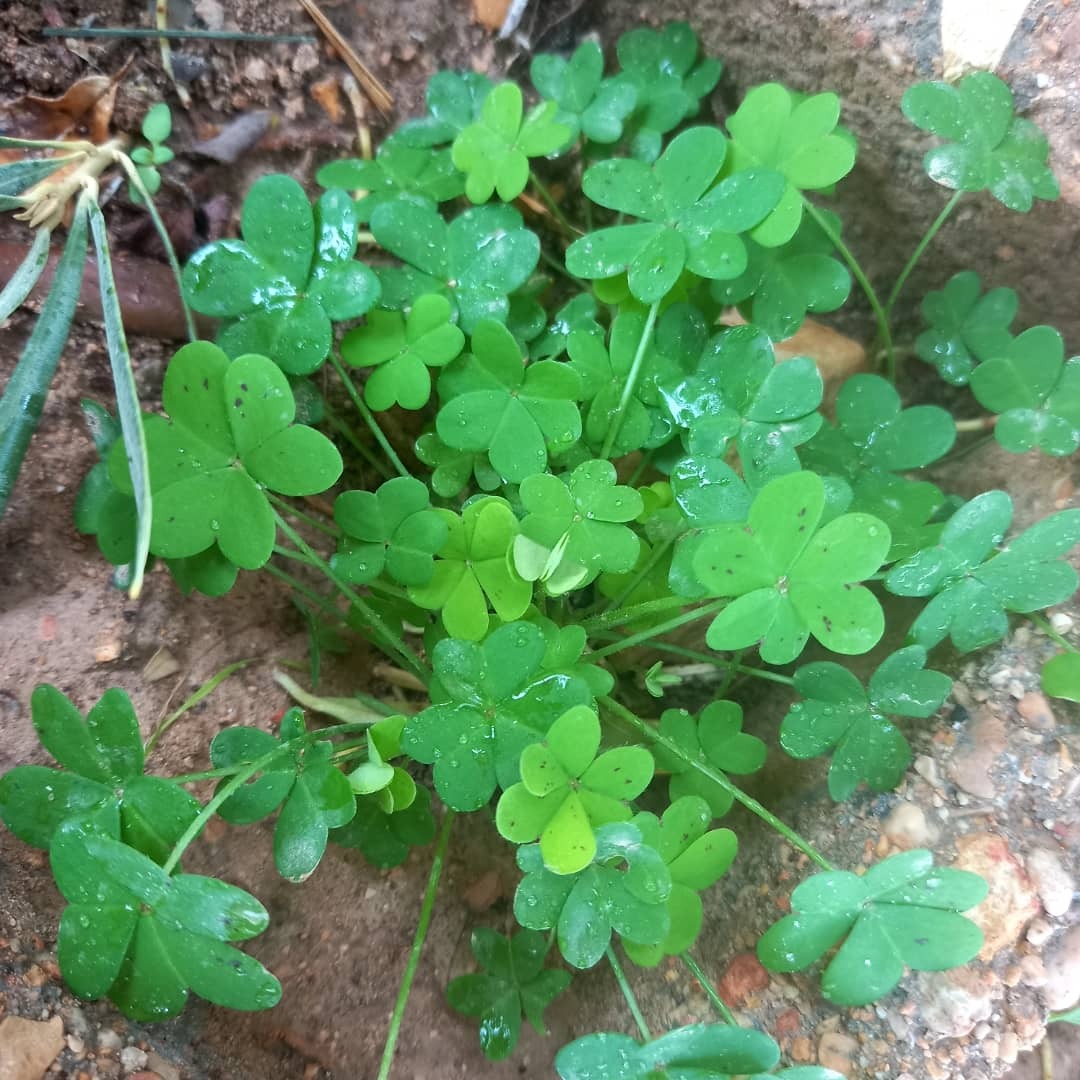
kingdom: Plantae
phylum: Tracheophyta
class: Magnoliopsida
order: Oxalidales
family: Oxalidaceae
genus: Oxalis
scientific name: Oxalis pes-caprae
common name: Bermuda-buttercup
